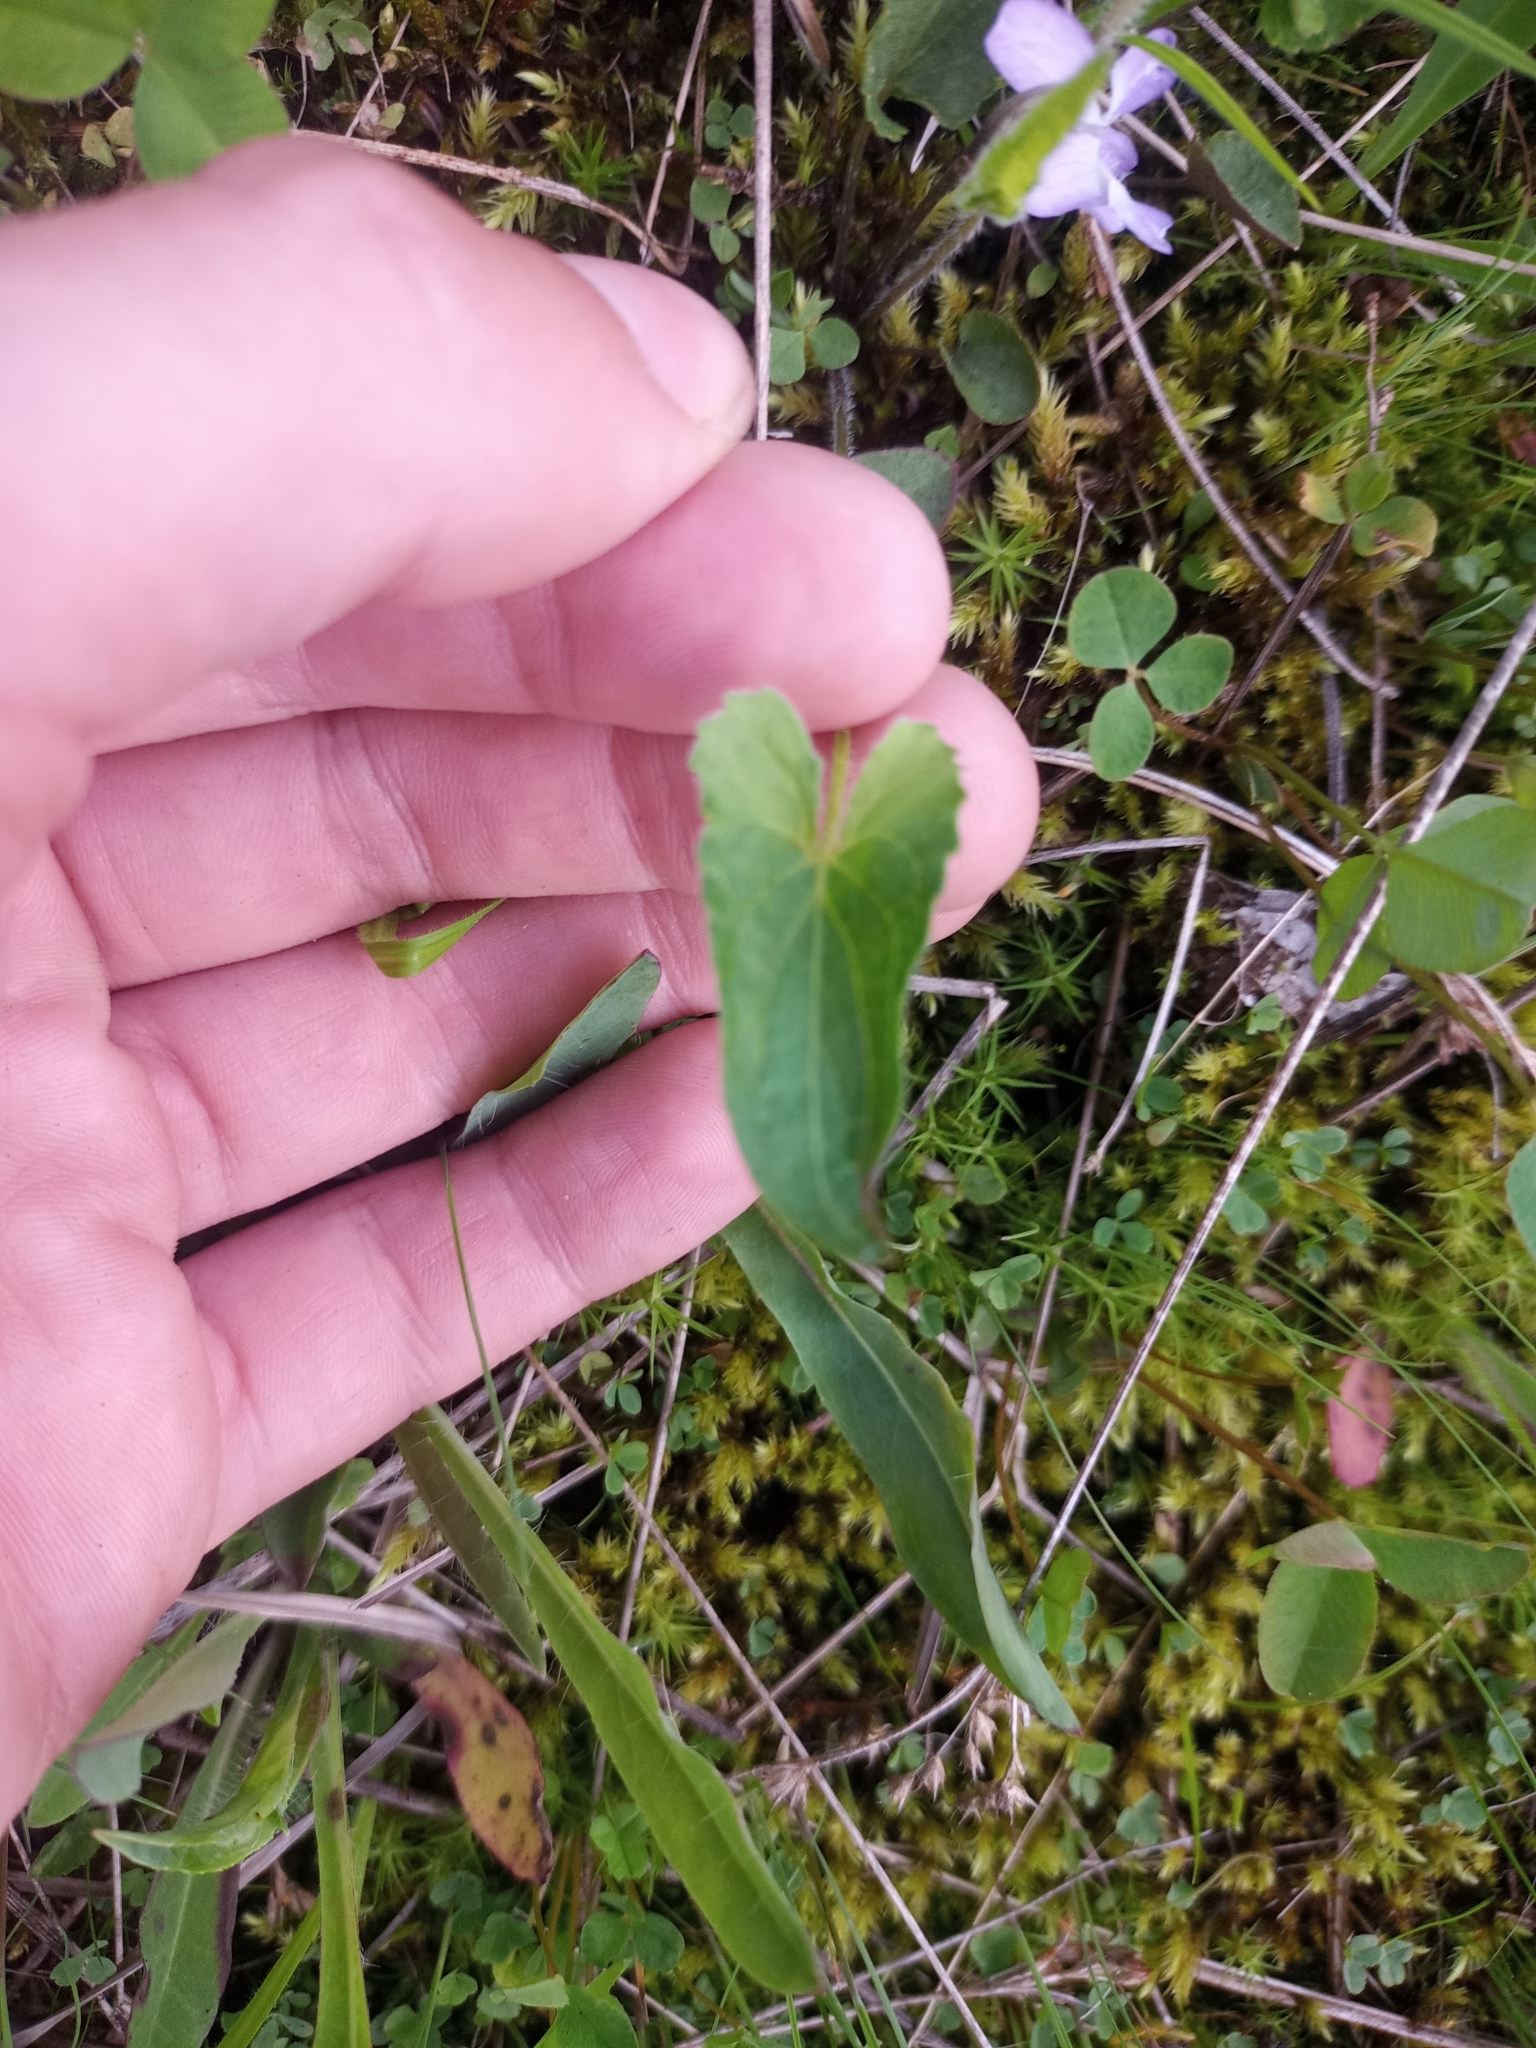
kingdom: Plantae
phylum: Tracheophyta
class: Magnoliopsida
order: Malpighiales
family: Violaceae
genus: Viola
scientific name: Viola novae-angliae
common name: New england blue violet
